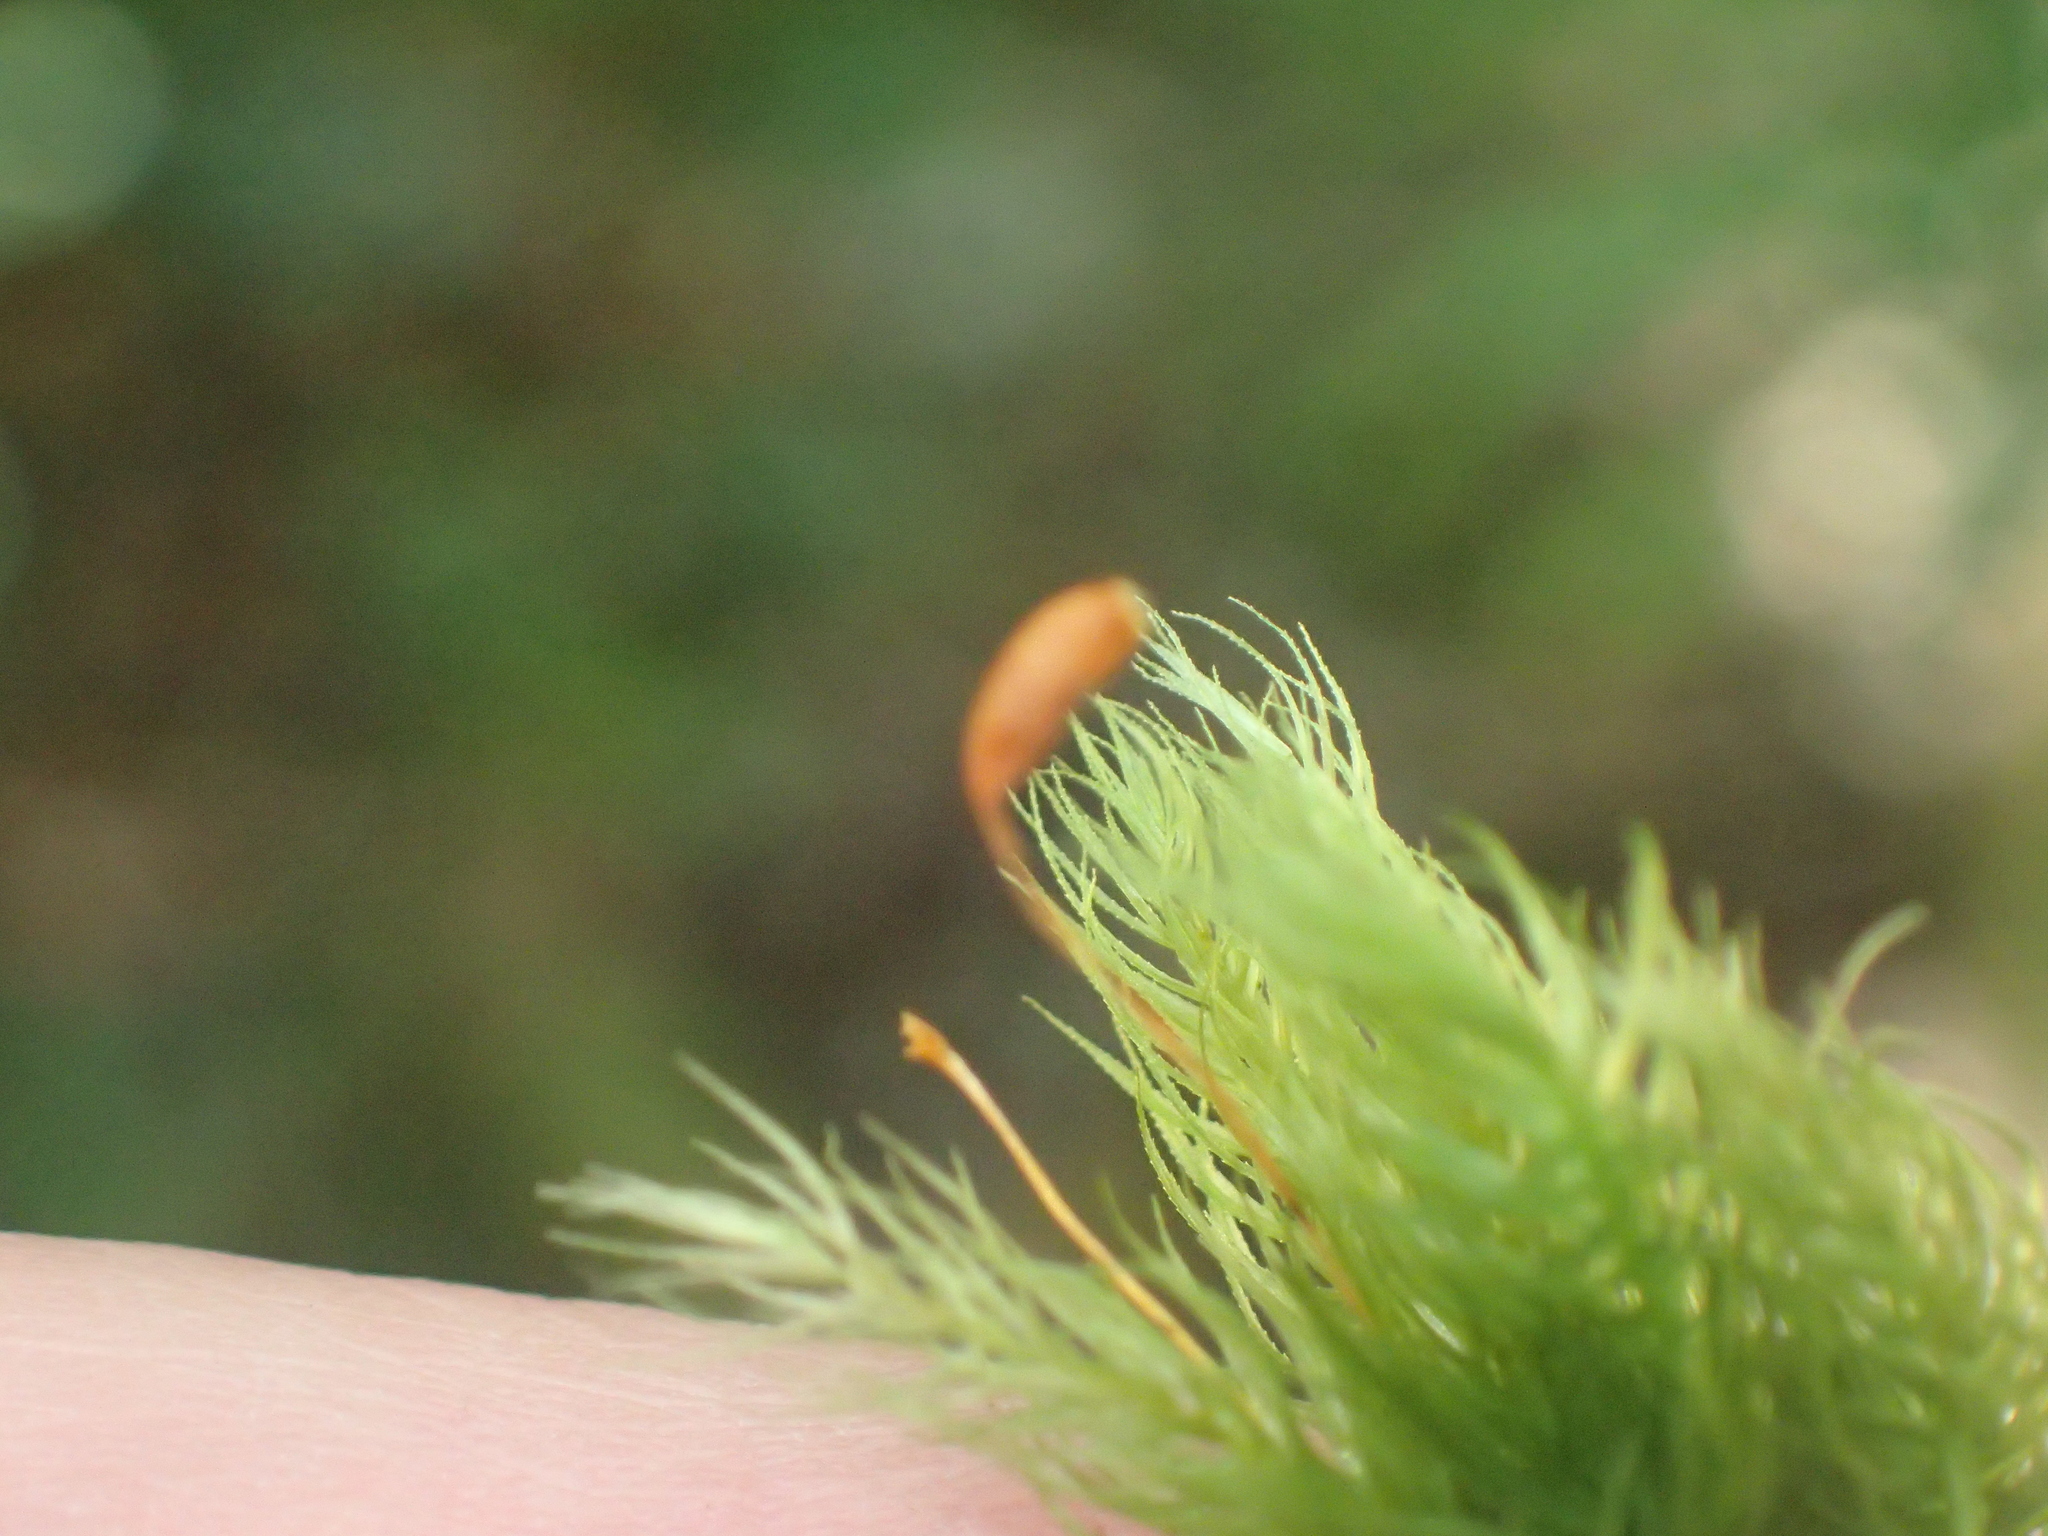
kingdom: Plantae
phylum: Bryophyta
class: Bryopsida
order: Rhizogoniales
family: Calomniaceae
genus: Pyrrhobryum
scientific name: Pyrrhobryum spiniforme
